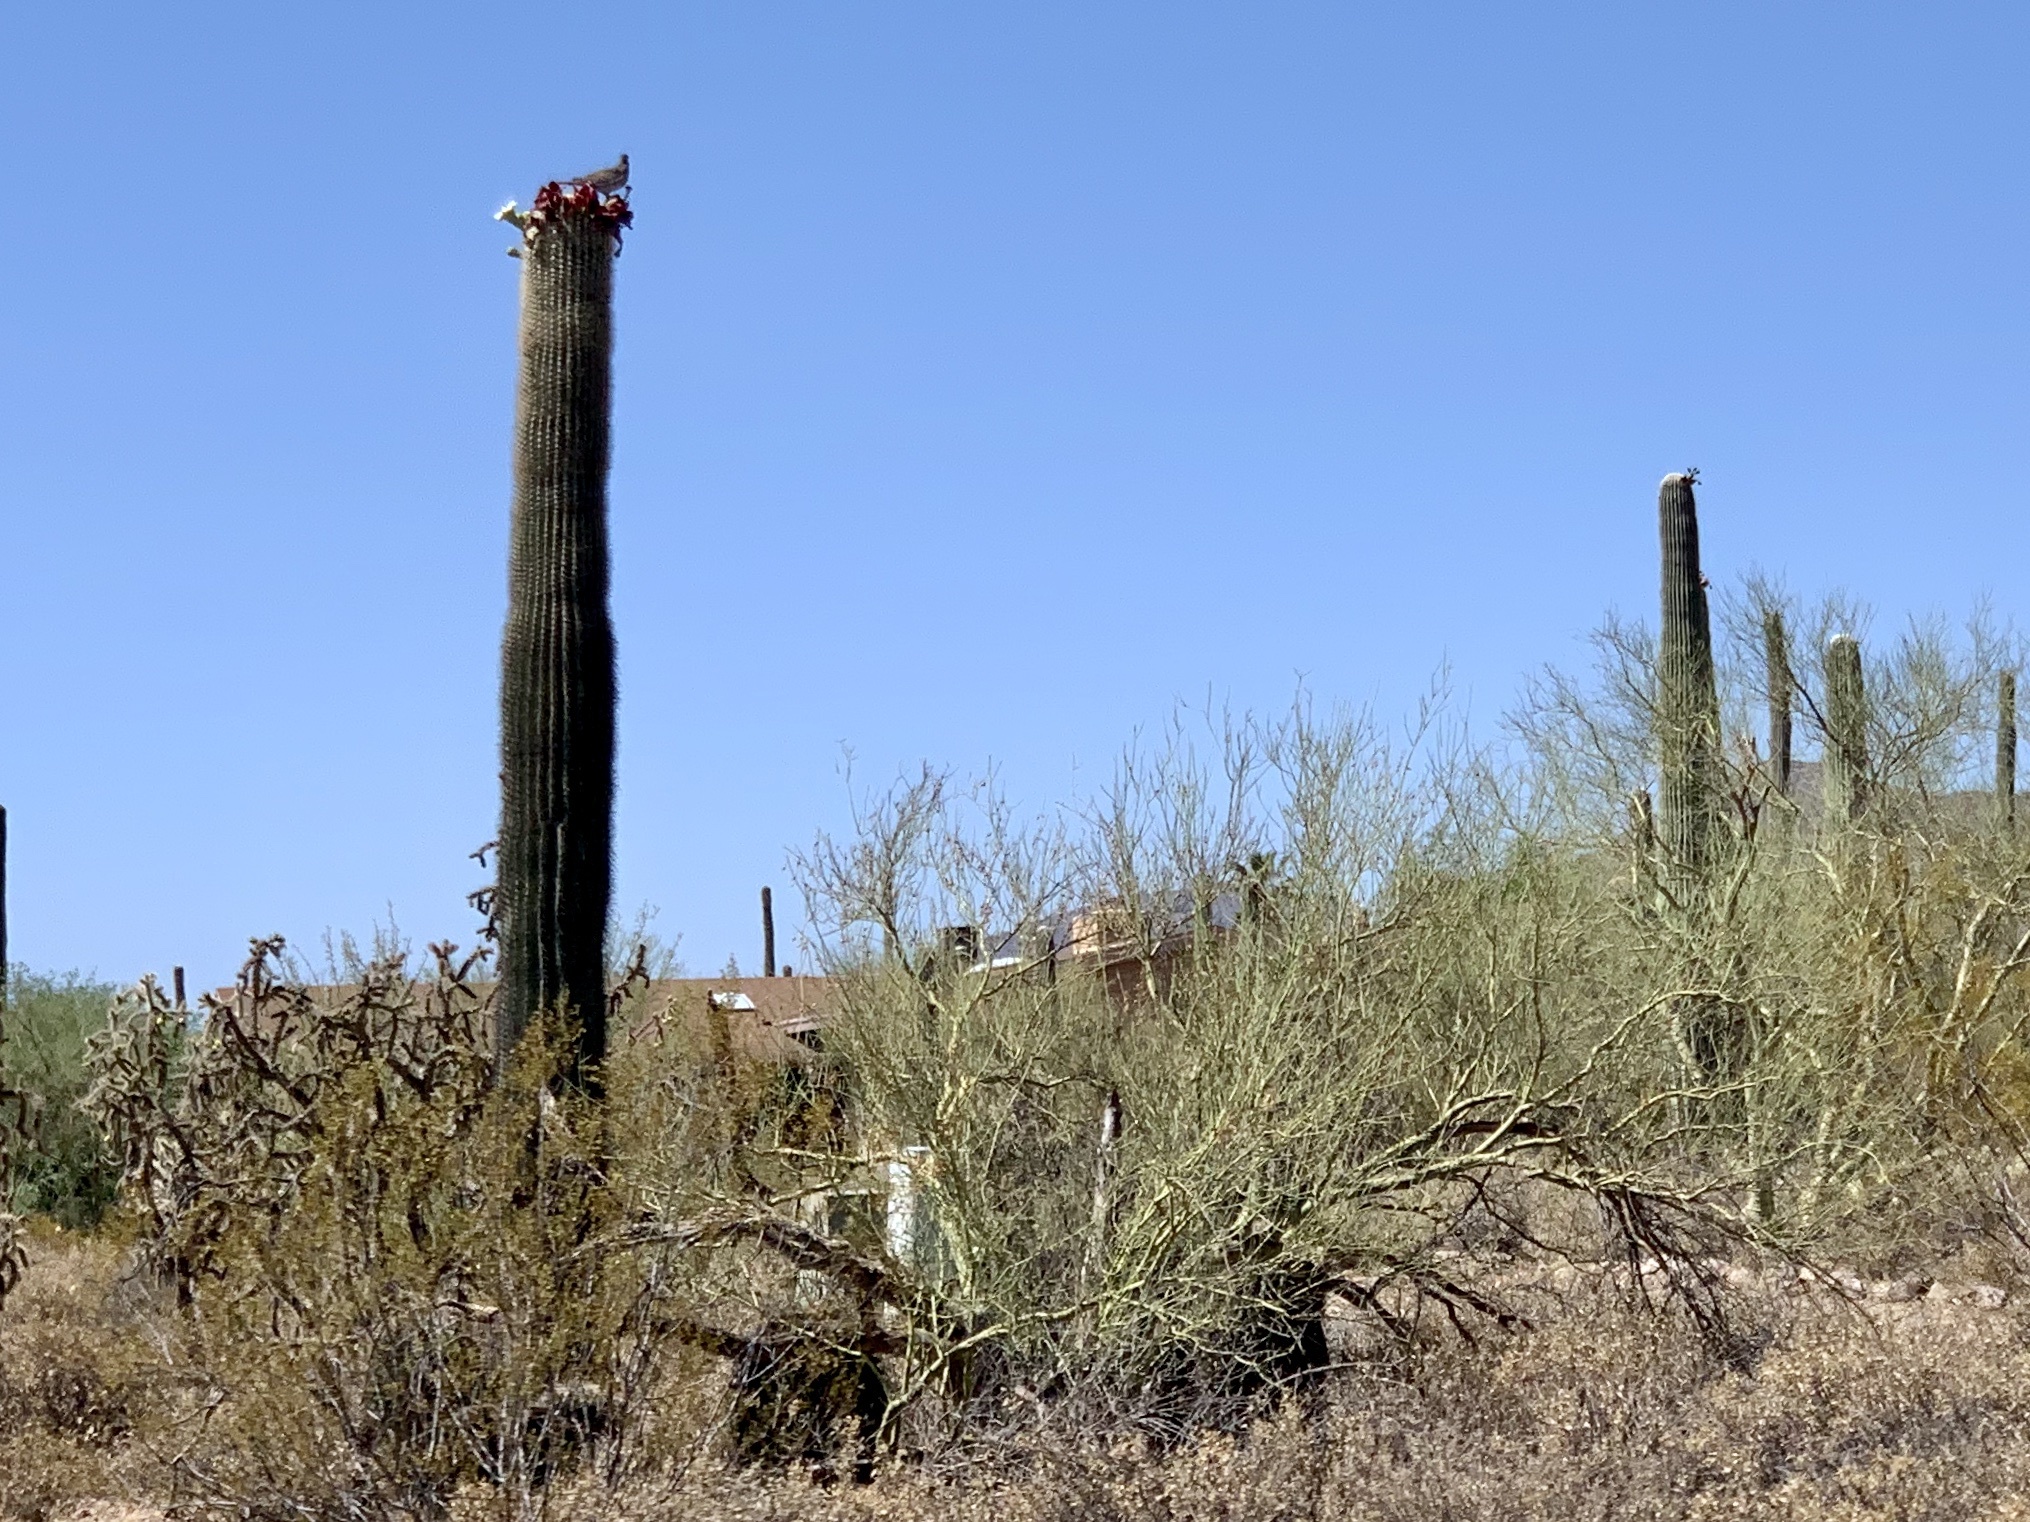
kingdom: Plantae
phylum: Tracheophyta
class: Magnoliopsida
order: Caryophyllales
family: Cactaceae
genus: Carnegiea
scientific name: Carnegiea gigantea
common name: Saguaro
